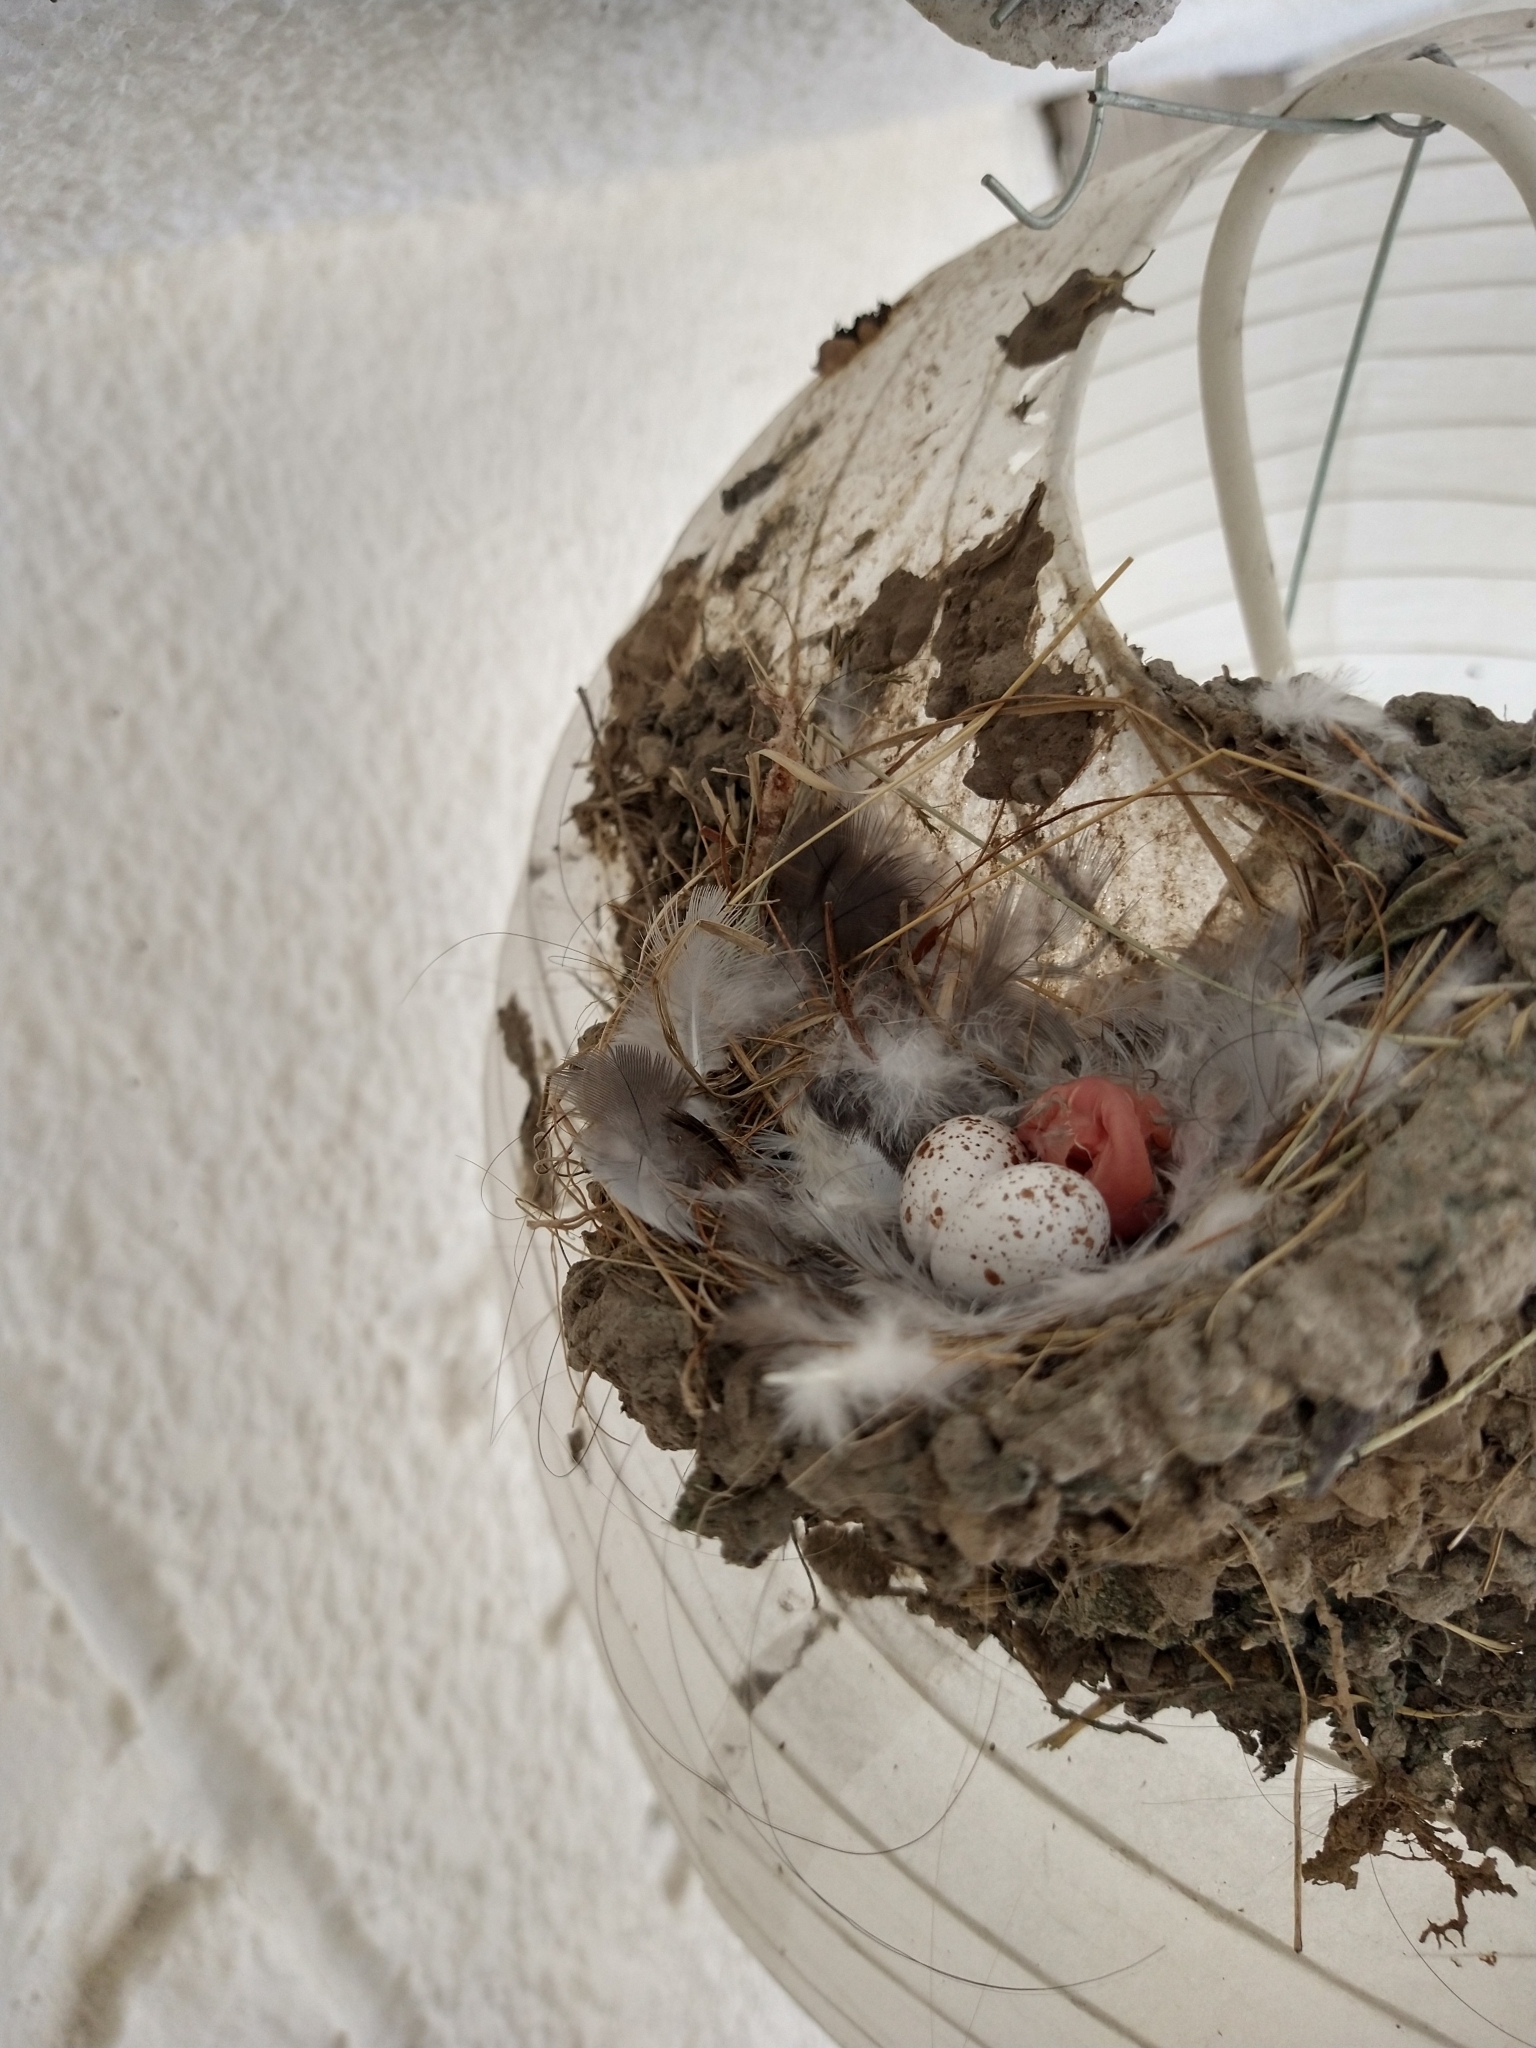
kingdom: Animalia
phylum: Chordata
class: Aves
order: Passeriformes
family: Hirundinidae
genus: Hirundo
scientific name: Hirundo rustica
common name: Barn swallow
